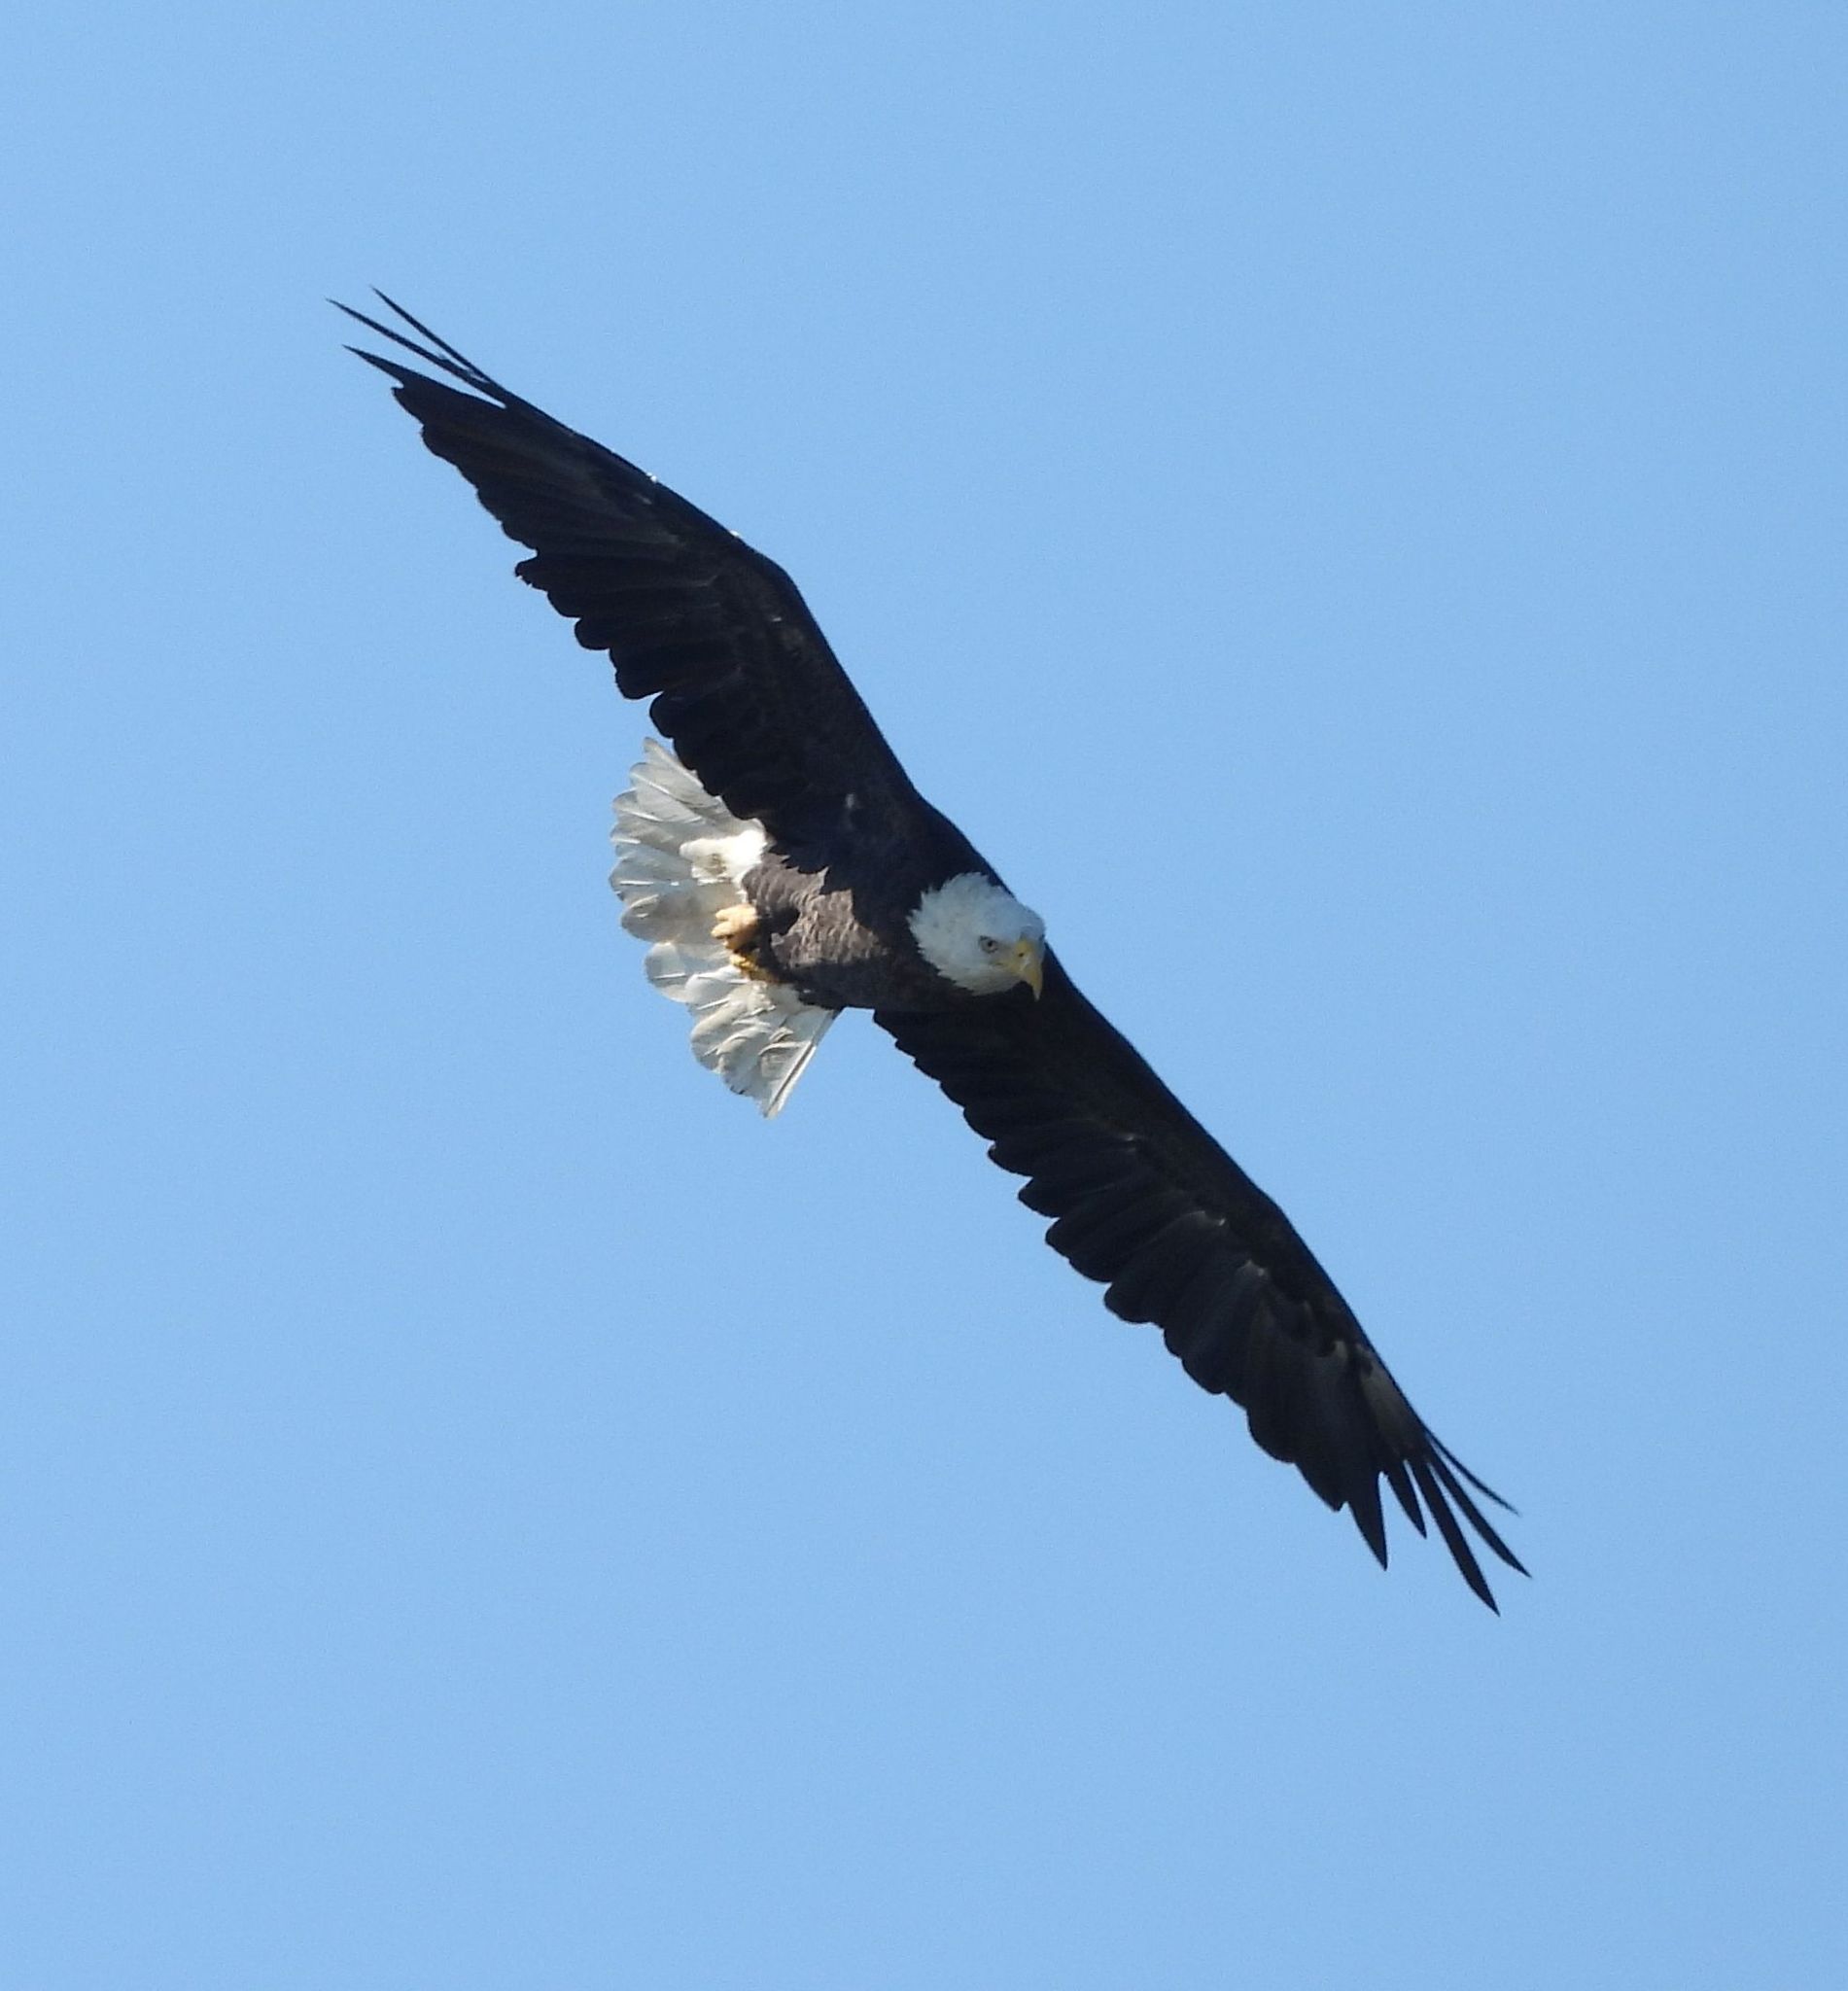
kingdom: Animalia
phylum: Chordata
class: Aves
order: Accipitriformes
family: Accipitridae
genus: Haliaeetus
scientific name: Haliaeetus leucocephalus
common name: Bald eagle
